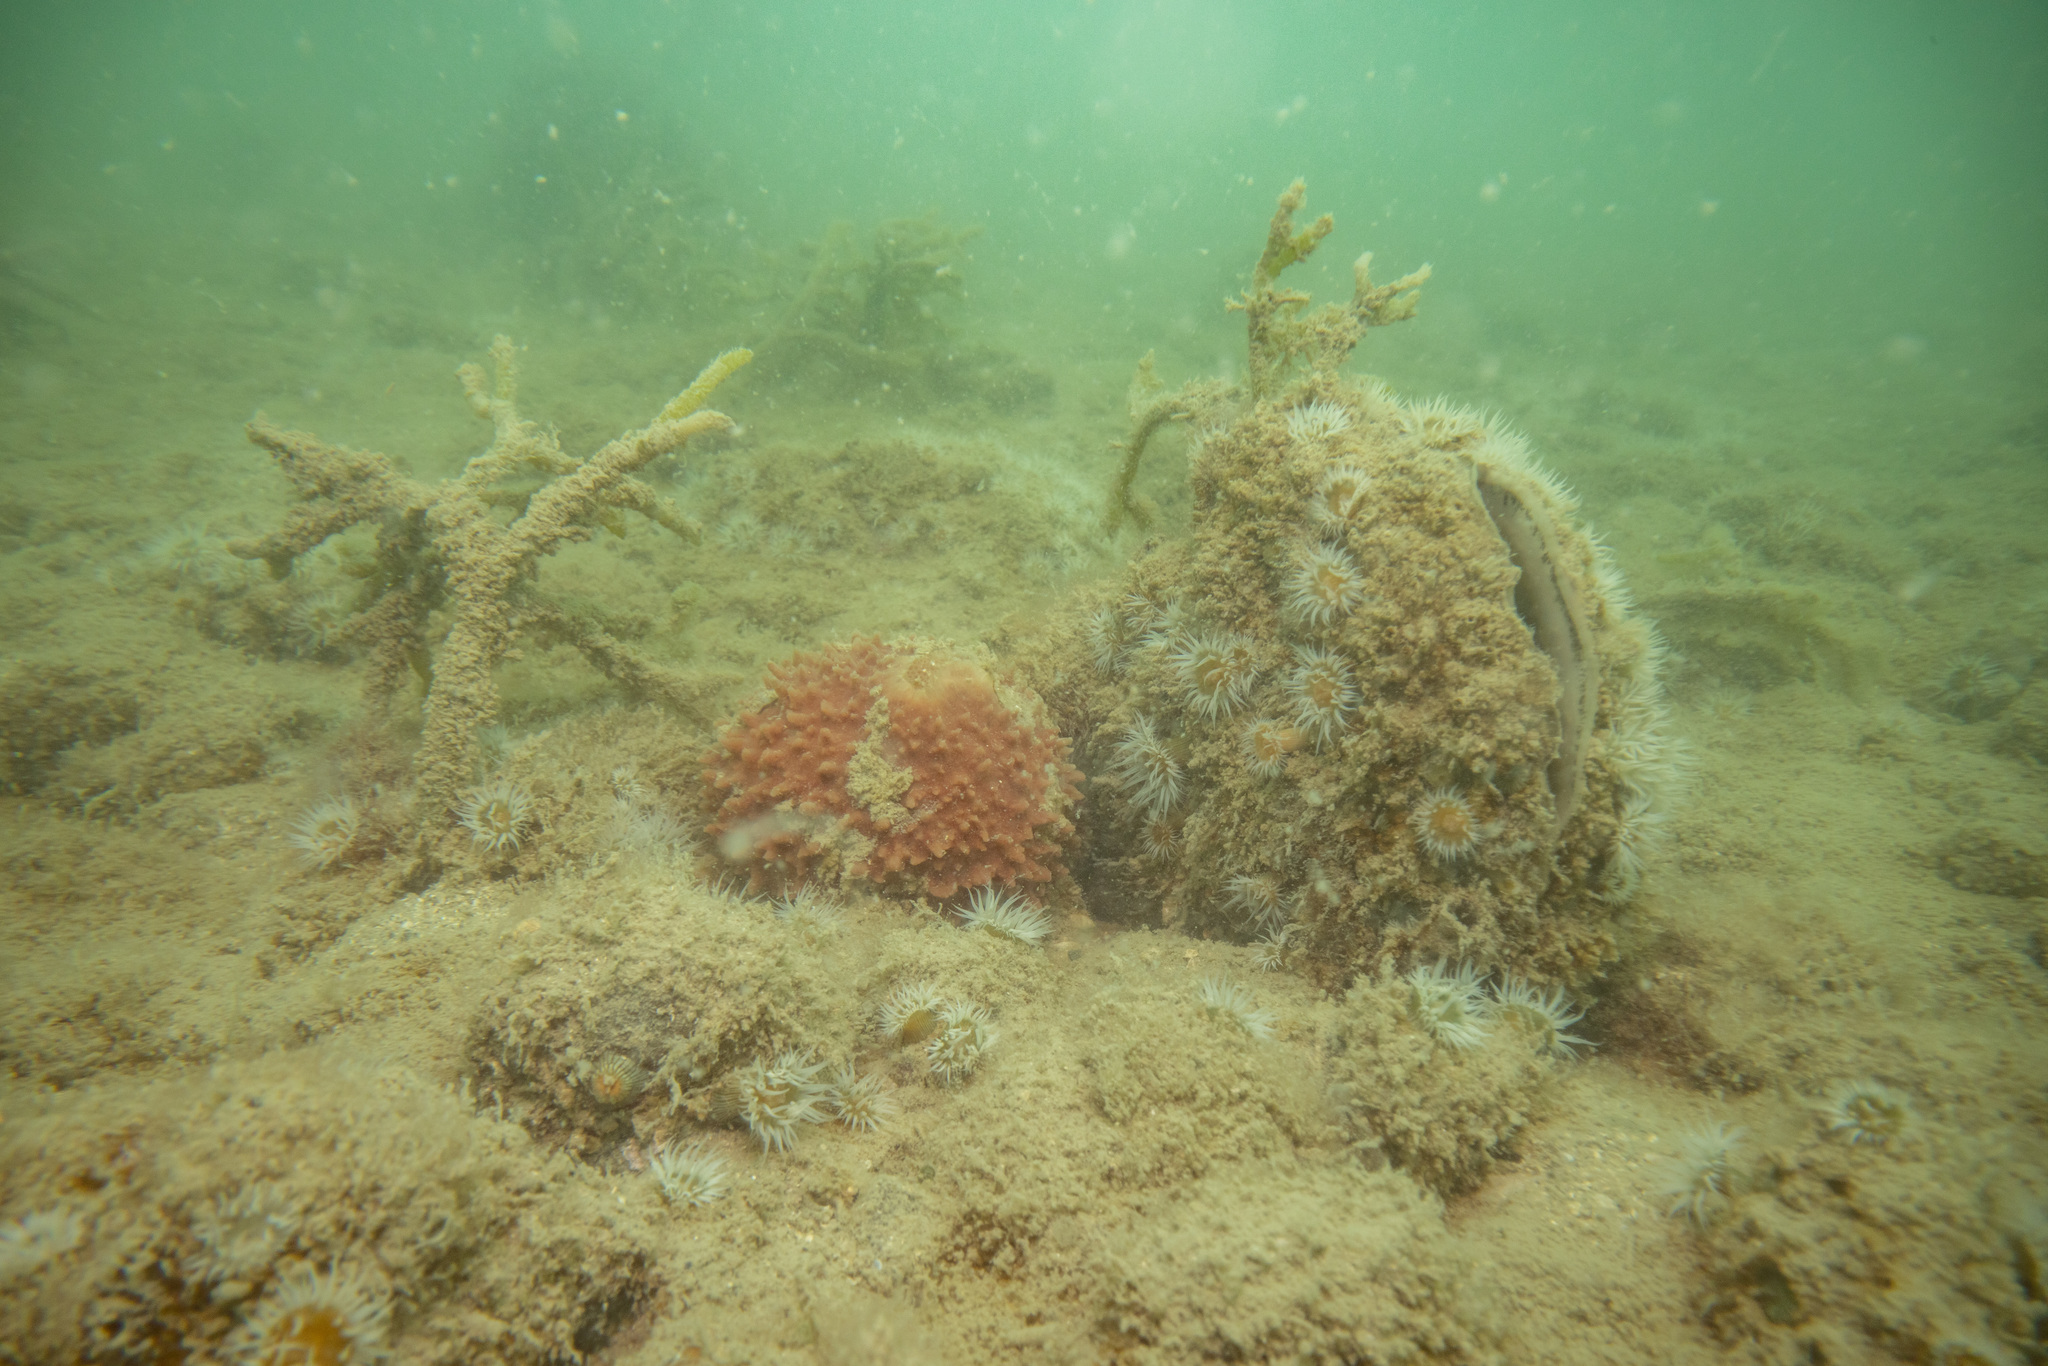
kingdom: Animalia
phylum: Mollusca
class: Bivalvia
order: Ostreida
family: Pinnidae
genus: Atrina
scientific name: Atrina zelandica
